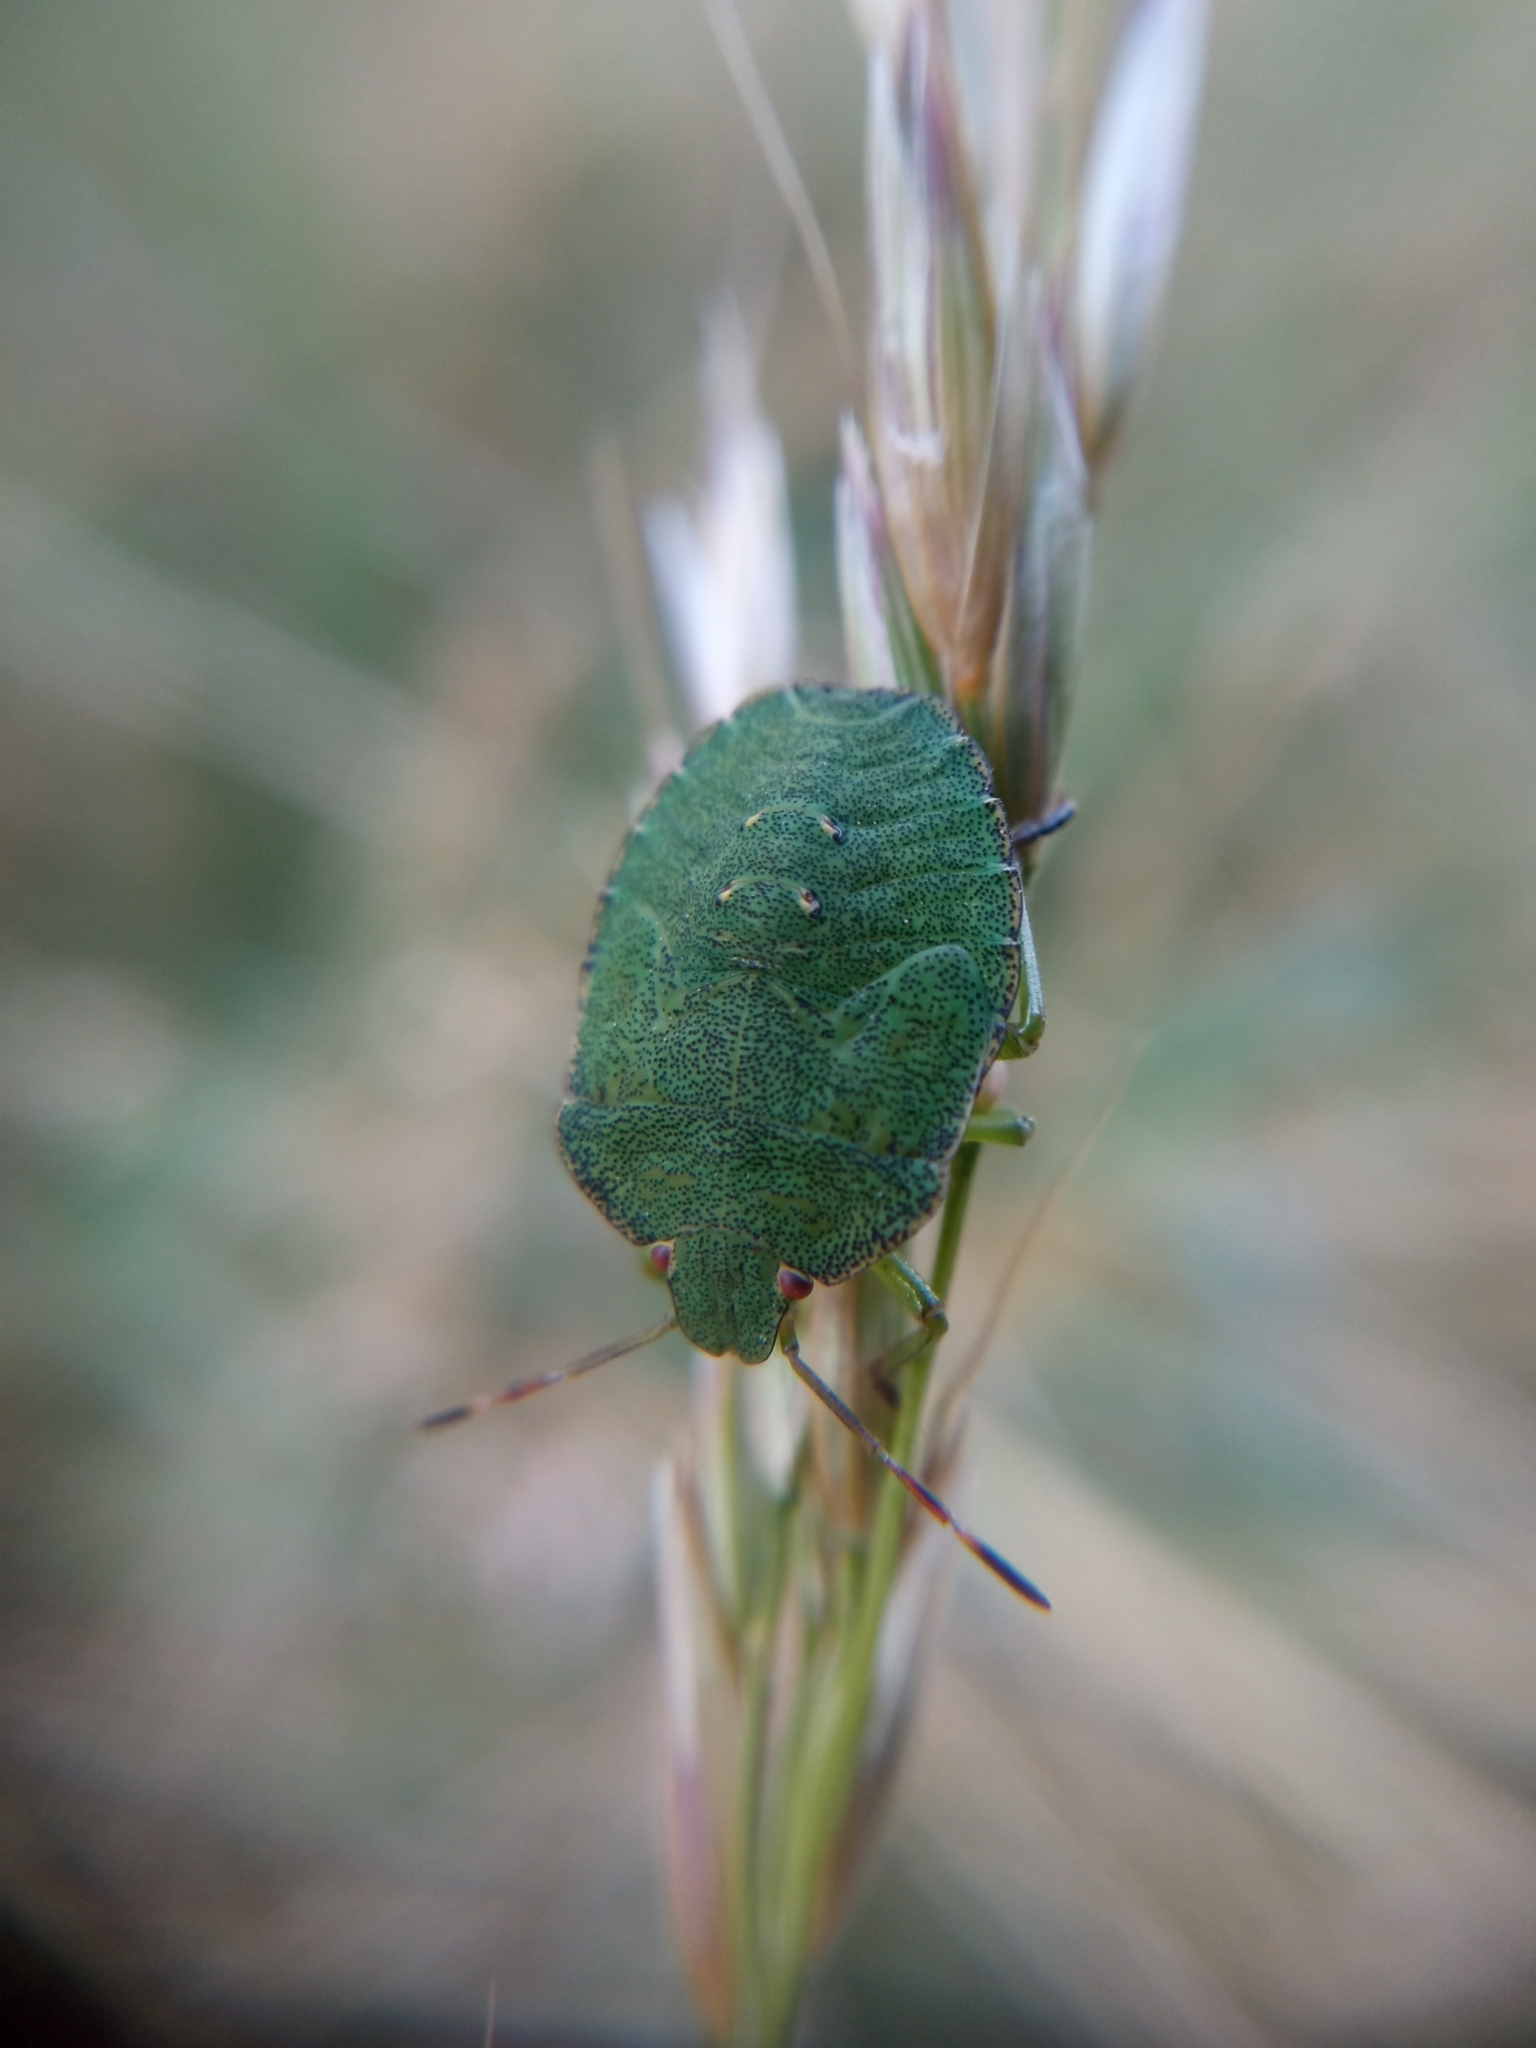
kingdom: Animalia
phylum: Arthropoda
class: Insecta
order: Hemiptera
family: Pentatomidae
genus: Palomena
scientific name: Palomena prasina
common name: Green shieldbug
